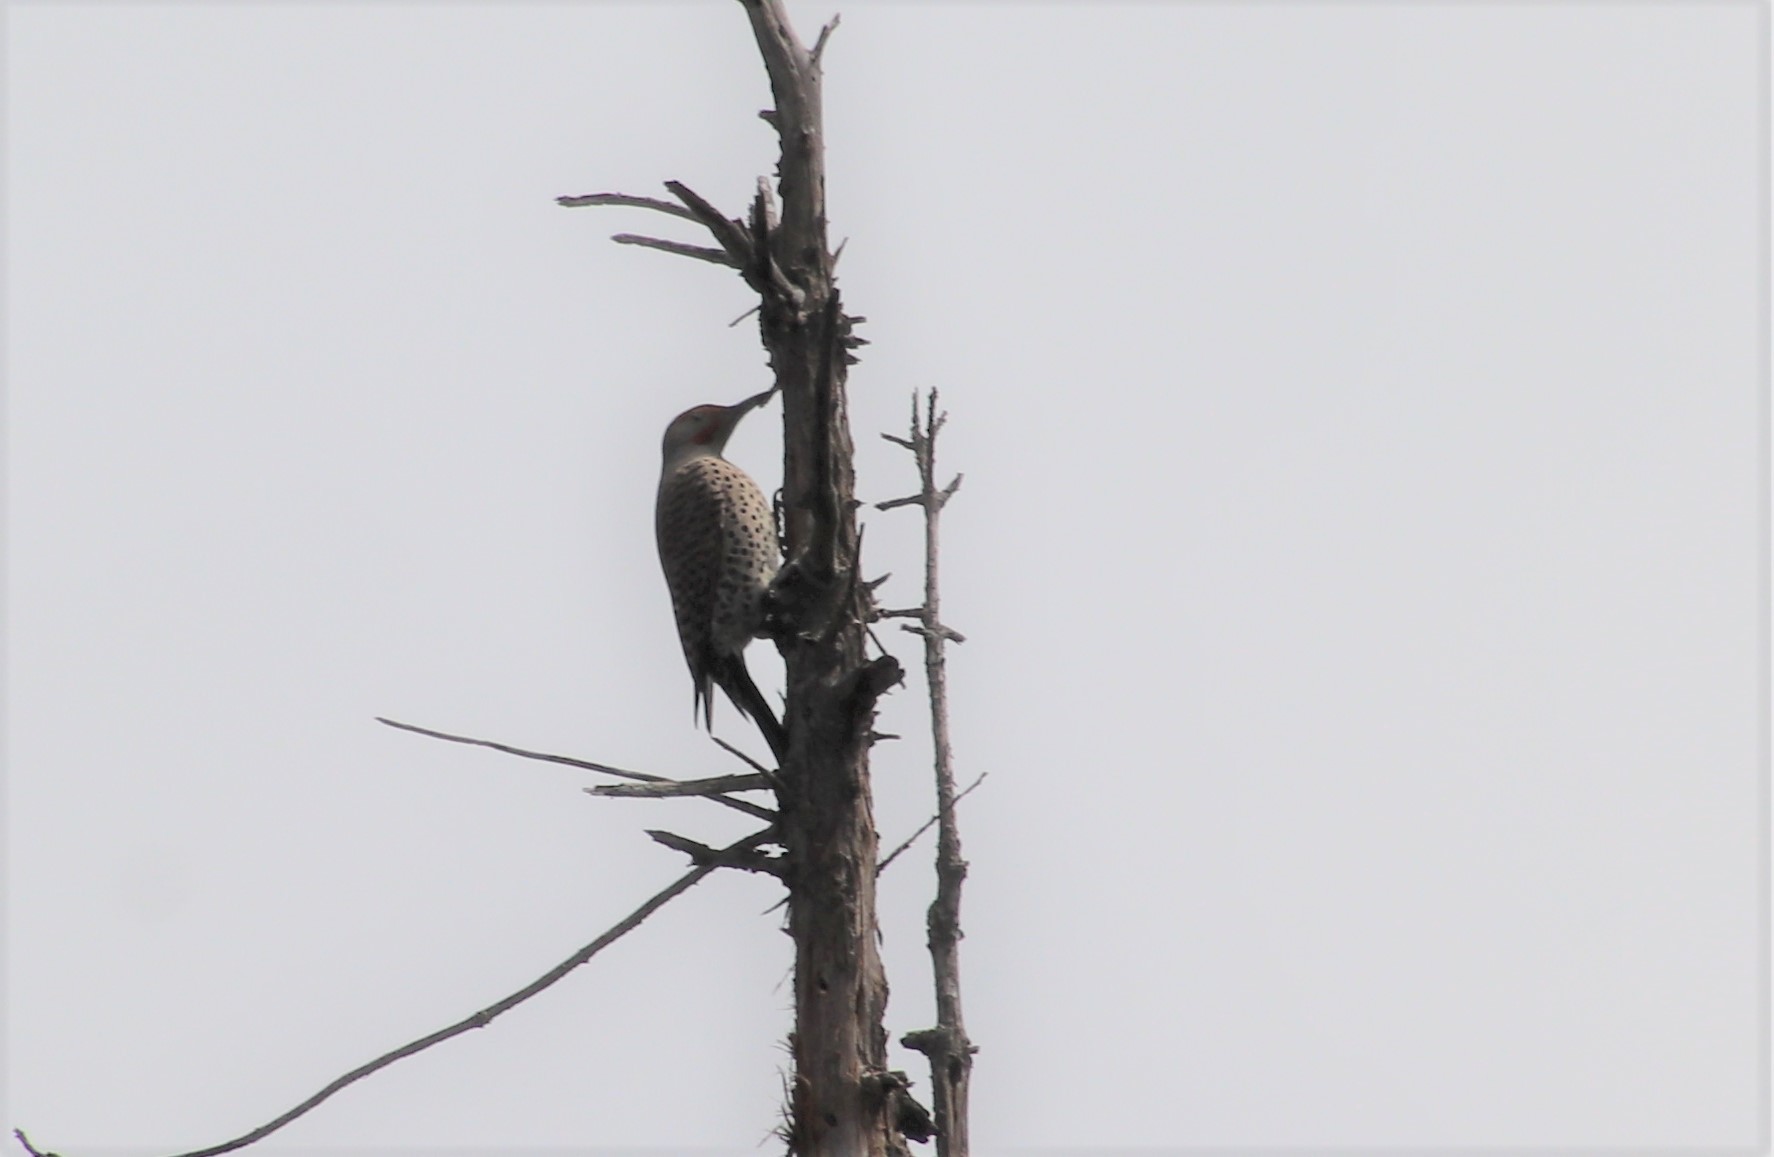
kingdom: Animalia
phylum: Chordata
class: Aves
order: Piciformes
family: Picidae
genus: Colaptes
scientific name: Colaptes auratus
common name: Northern flicker
